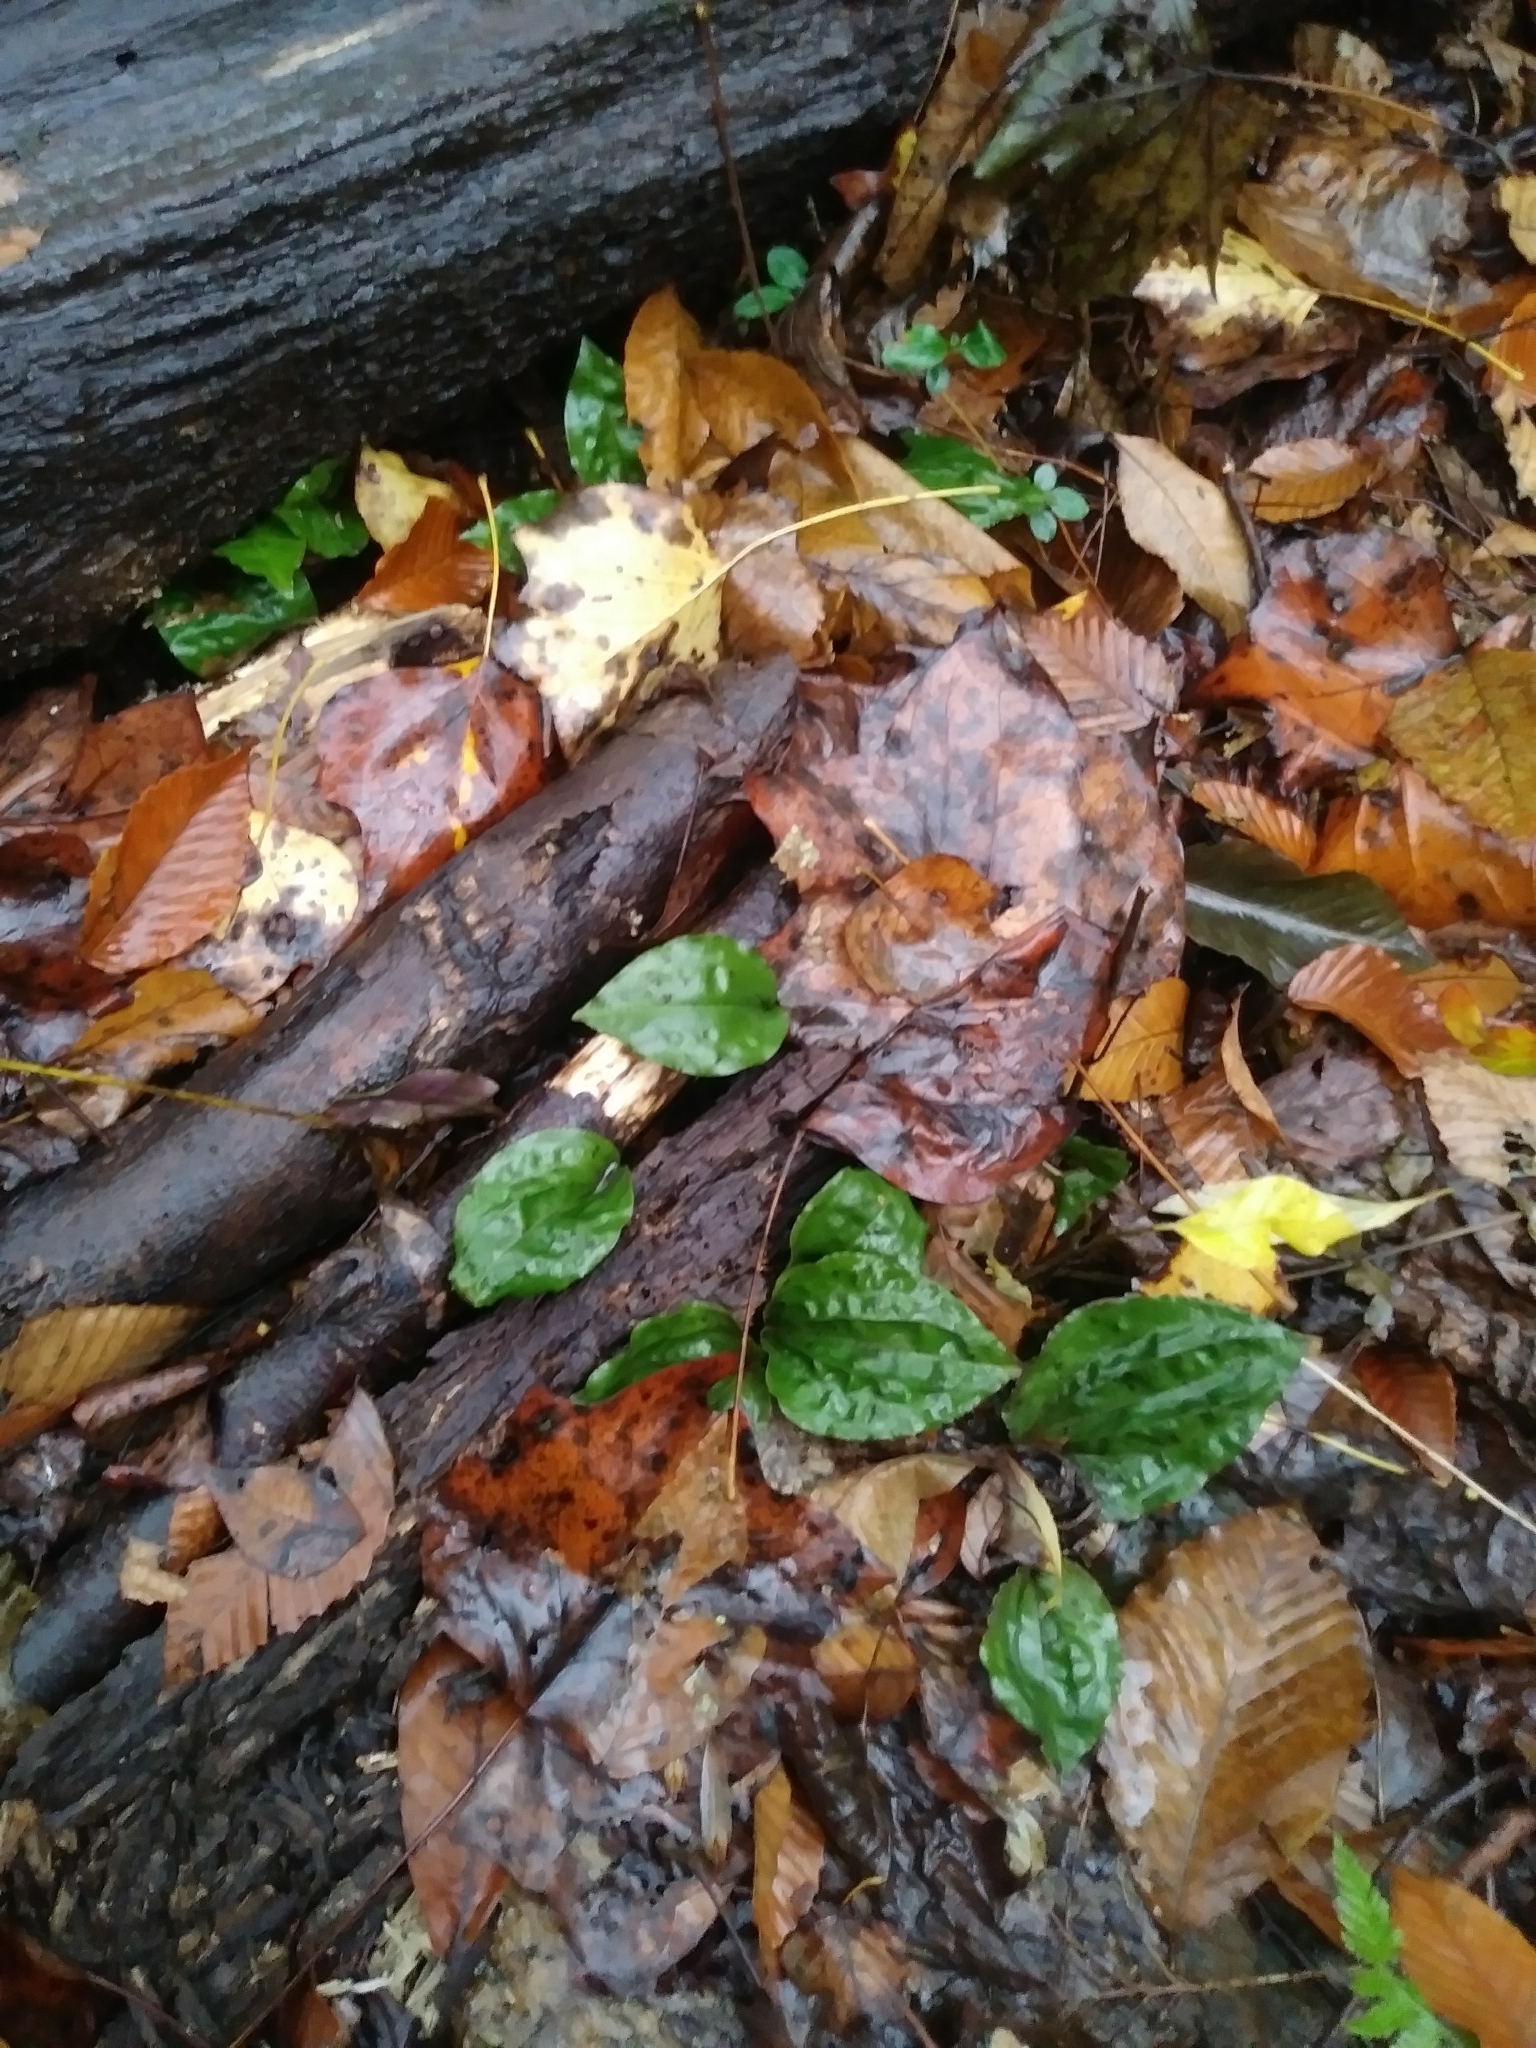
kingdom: Plantae
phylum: Tracheophyta
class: Liliopsida
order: Asparagales
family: Orchidaceae
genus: Tipularia
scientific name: Tipularia discolor
